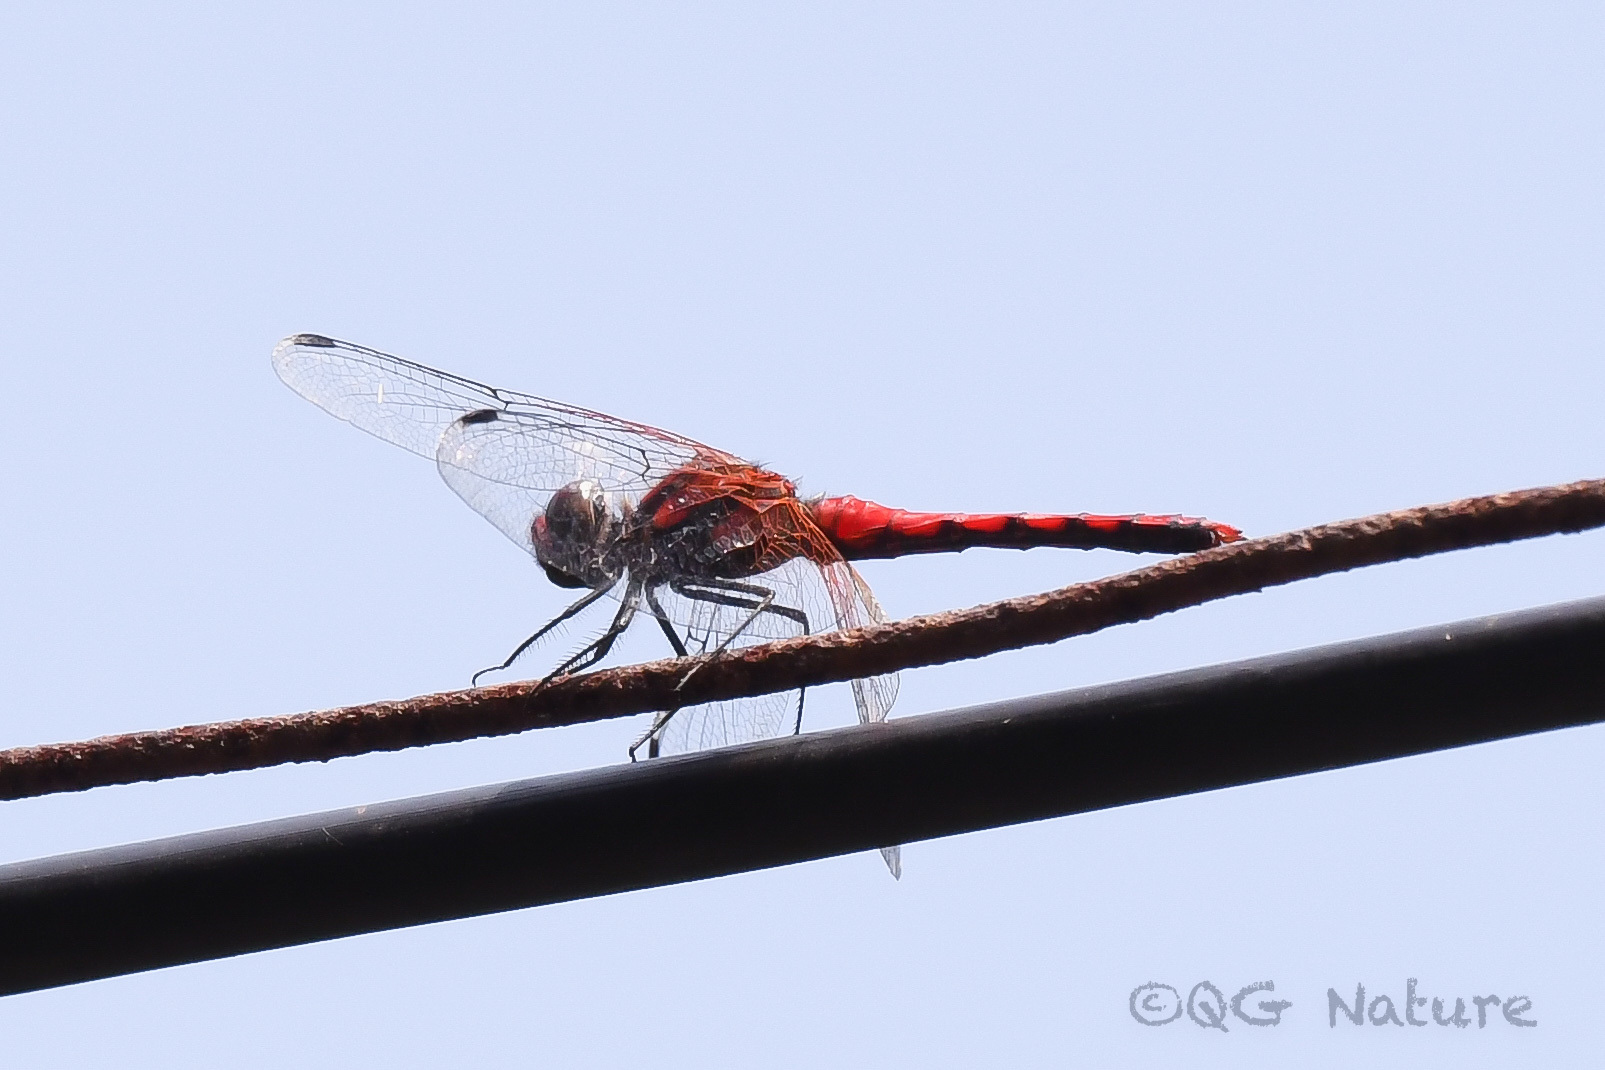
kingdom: Animalia
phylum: Arthropoda
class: Insecta
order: Odonata
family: Libellulidae
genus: Sympetrum
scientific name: Sympetrum speciosum
